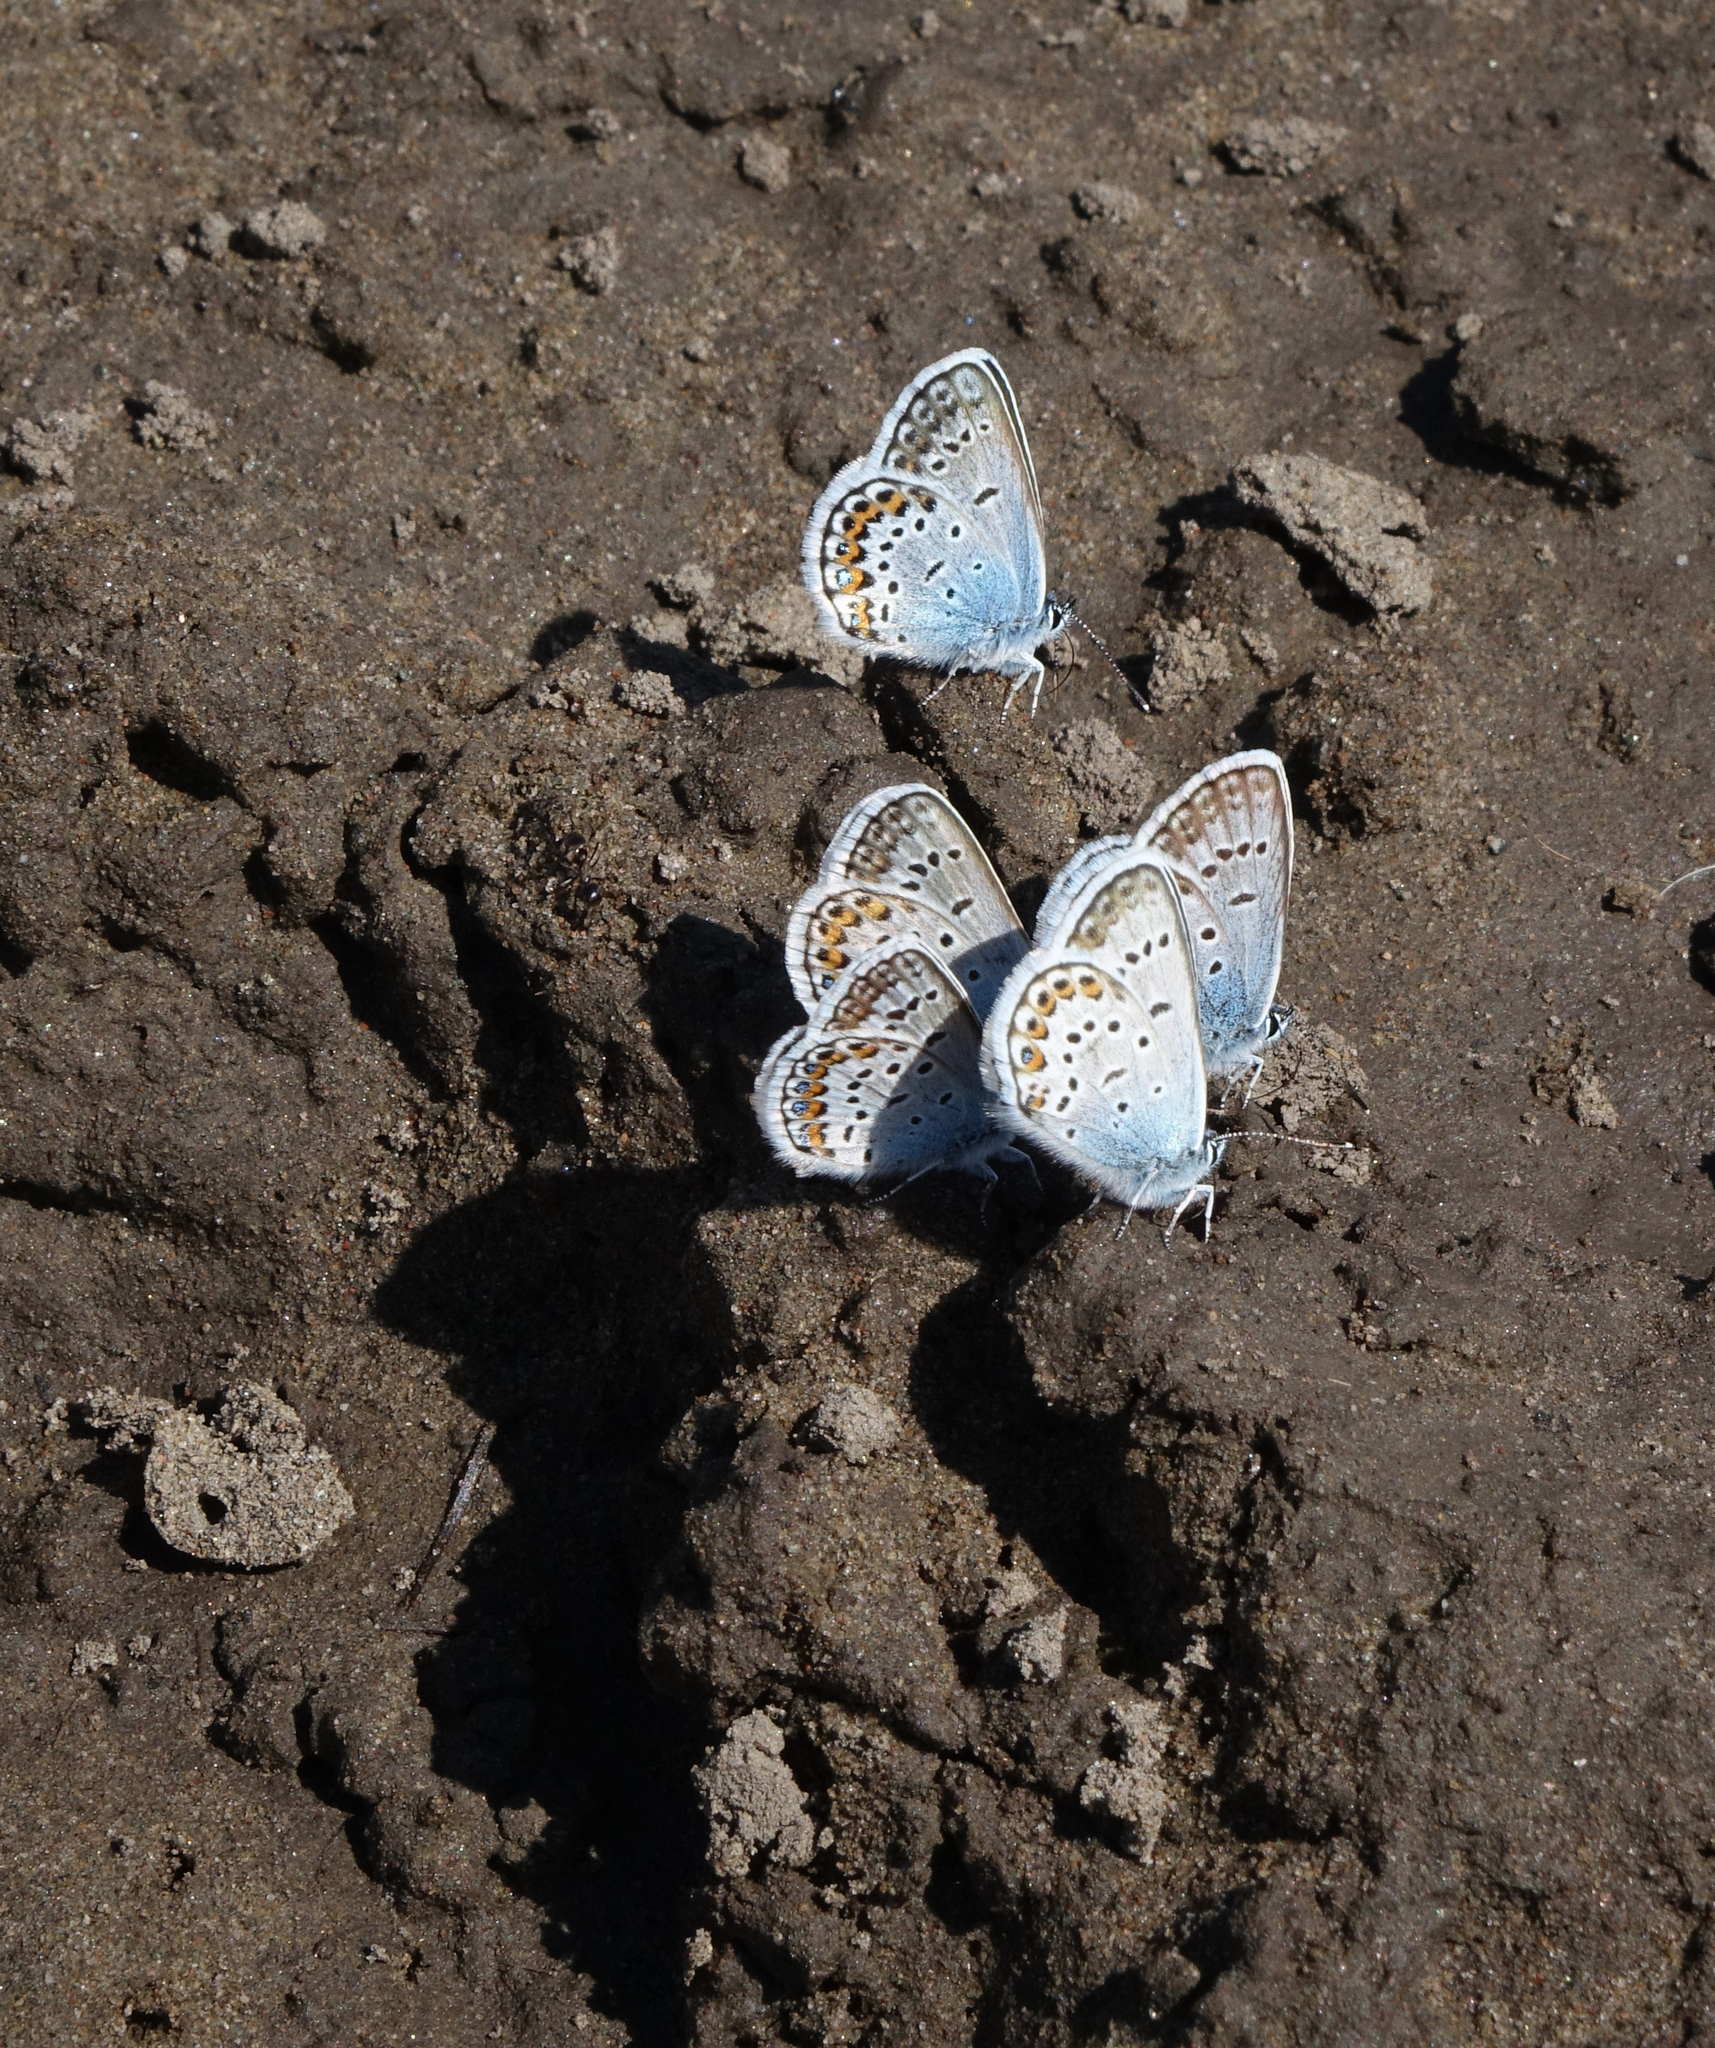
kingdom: Animalia
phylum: Arthropoda
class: Insecta
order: Lepidoptera
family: Lycaenidae
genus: Plebejus
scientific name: Plebejus argus
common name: Silver-studded blue
